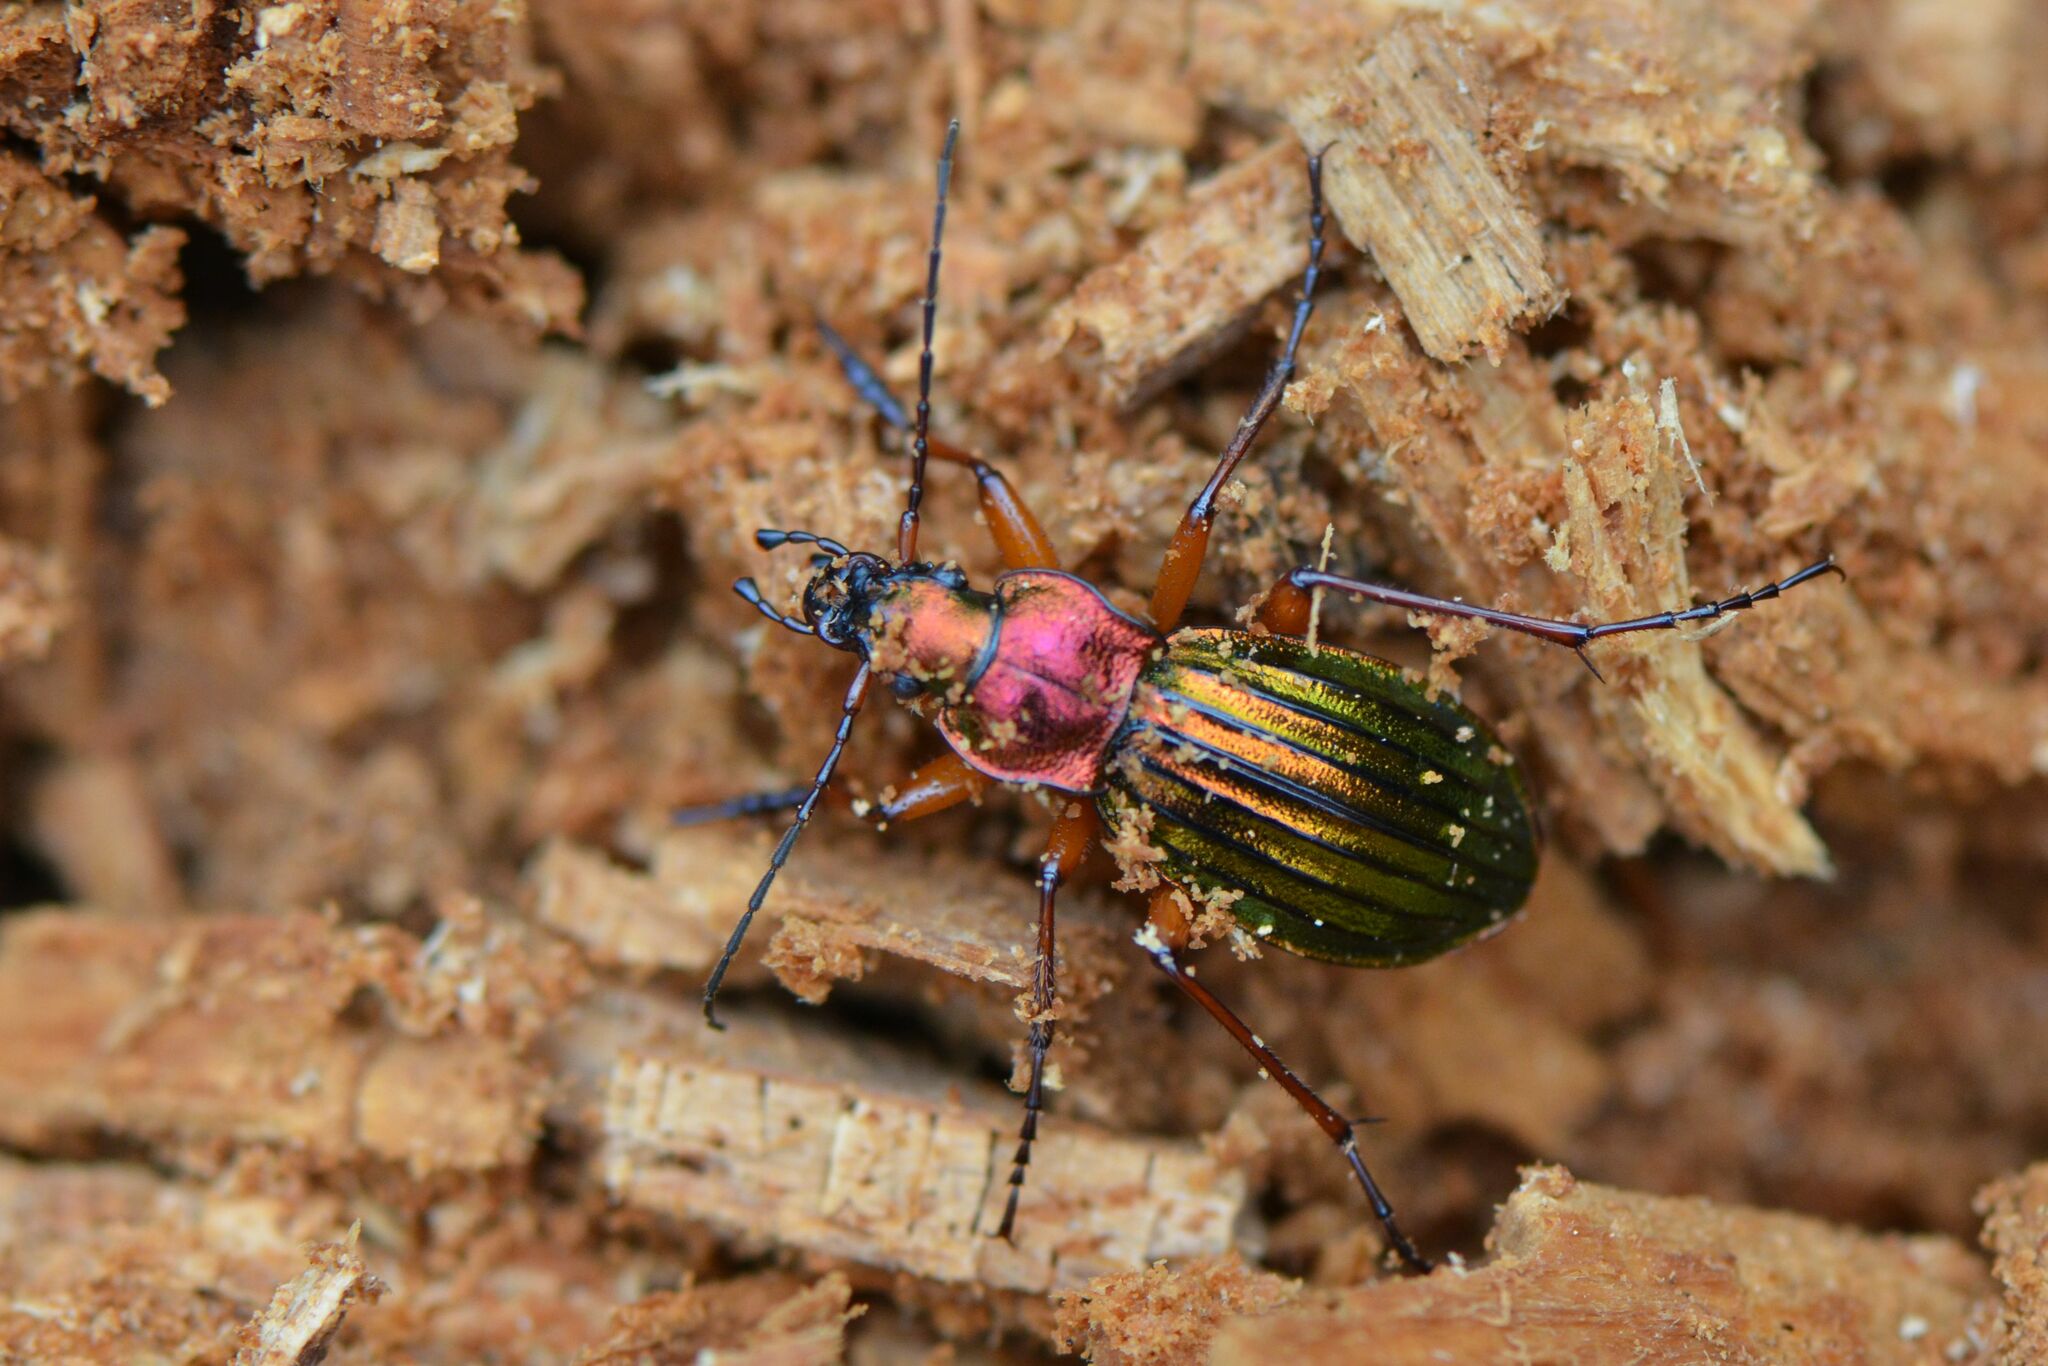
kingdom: Animalia
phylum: Arthropoda
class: Insecta
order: Coleoptera
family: Carabidae
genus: Carabus
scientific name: Carabus auronitens
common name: Carabus auronitens
